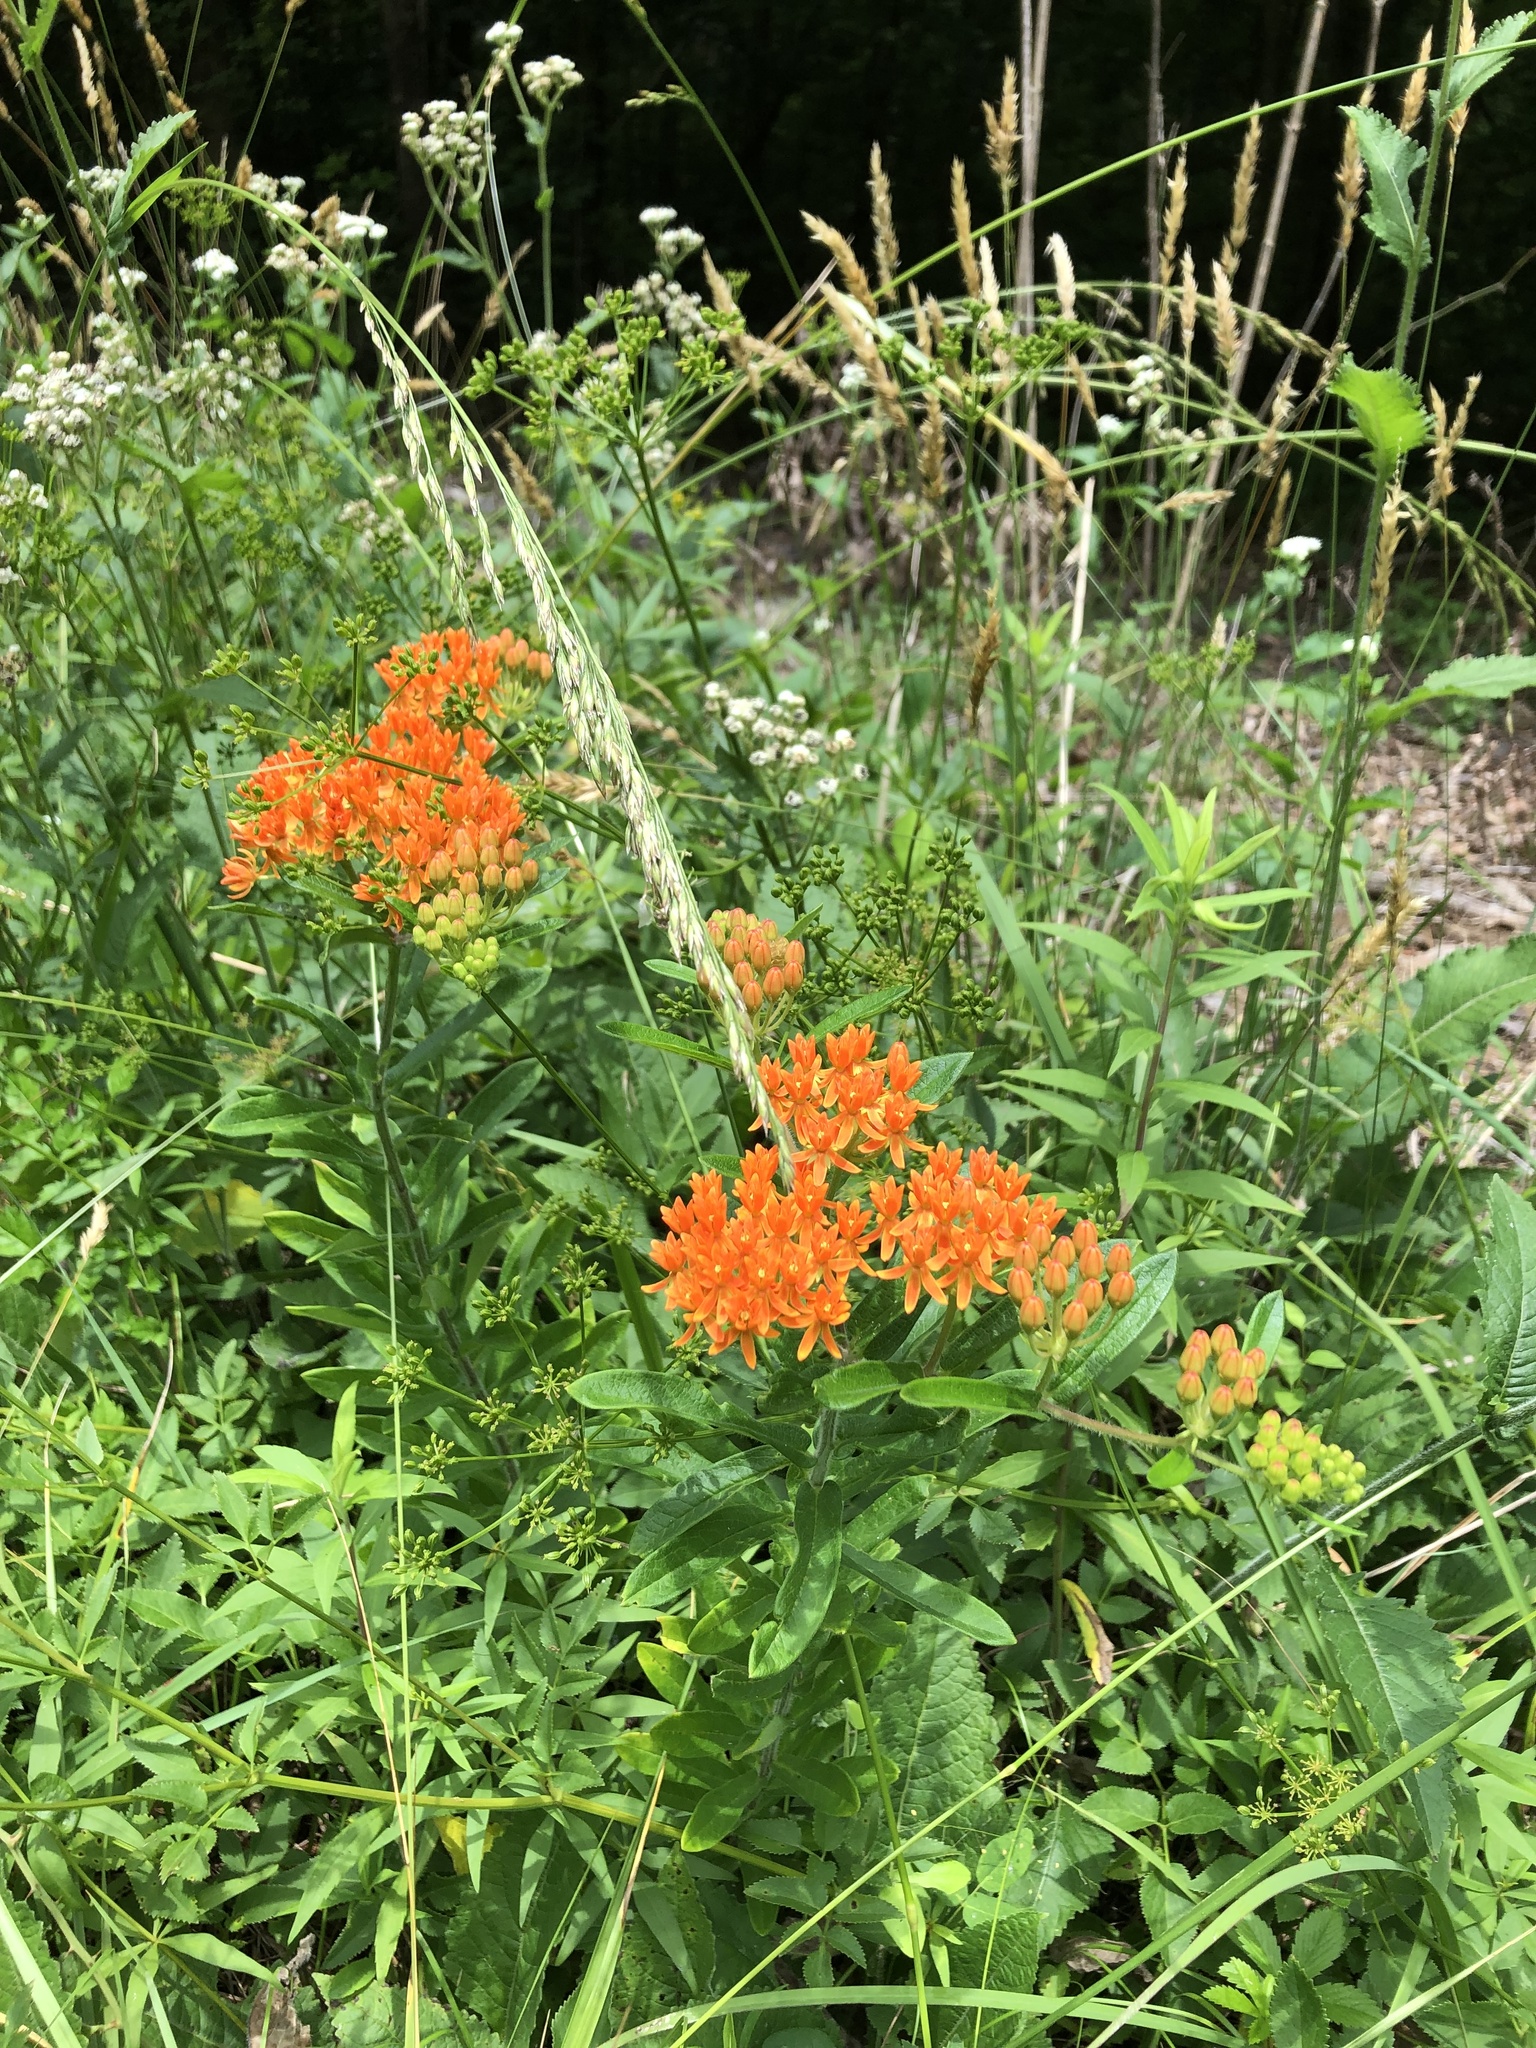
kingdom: Plantae
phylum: Tracheophyta
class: Magnoliopsida
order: Gentianales
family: Apocynaceae
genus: Asclepias
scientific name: Asclepias tuberosa
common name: Butterfly milkweed
